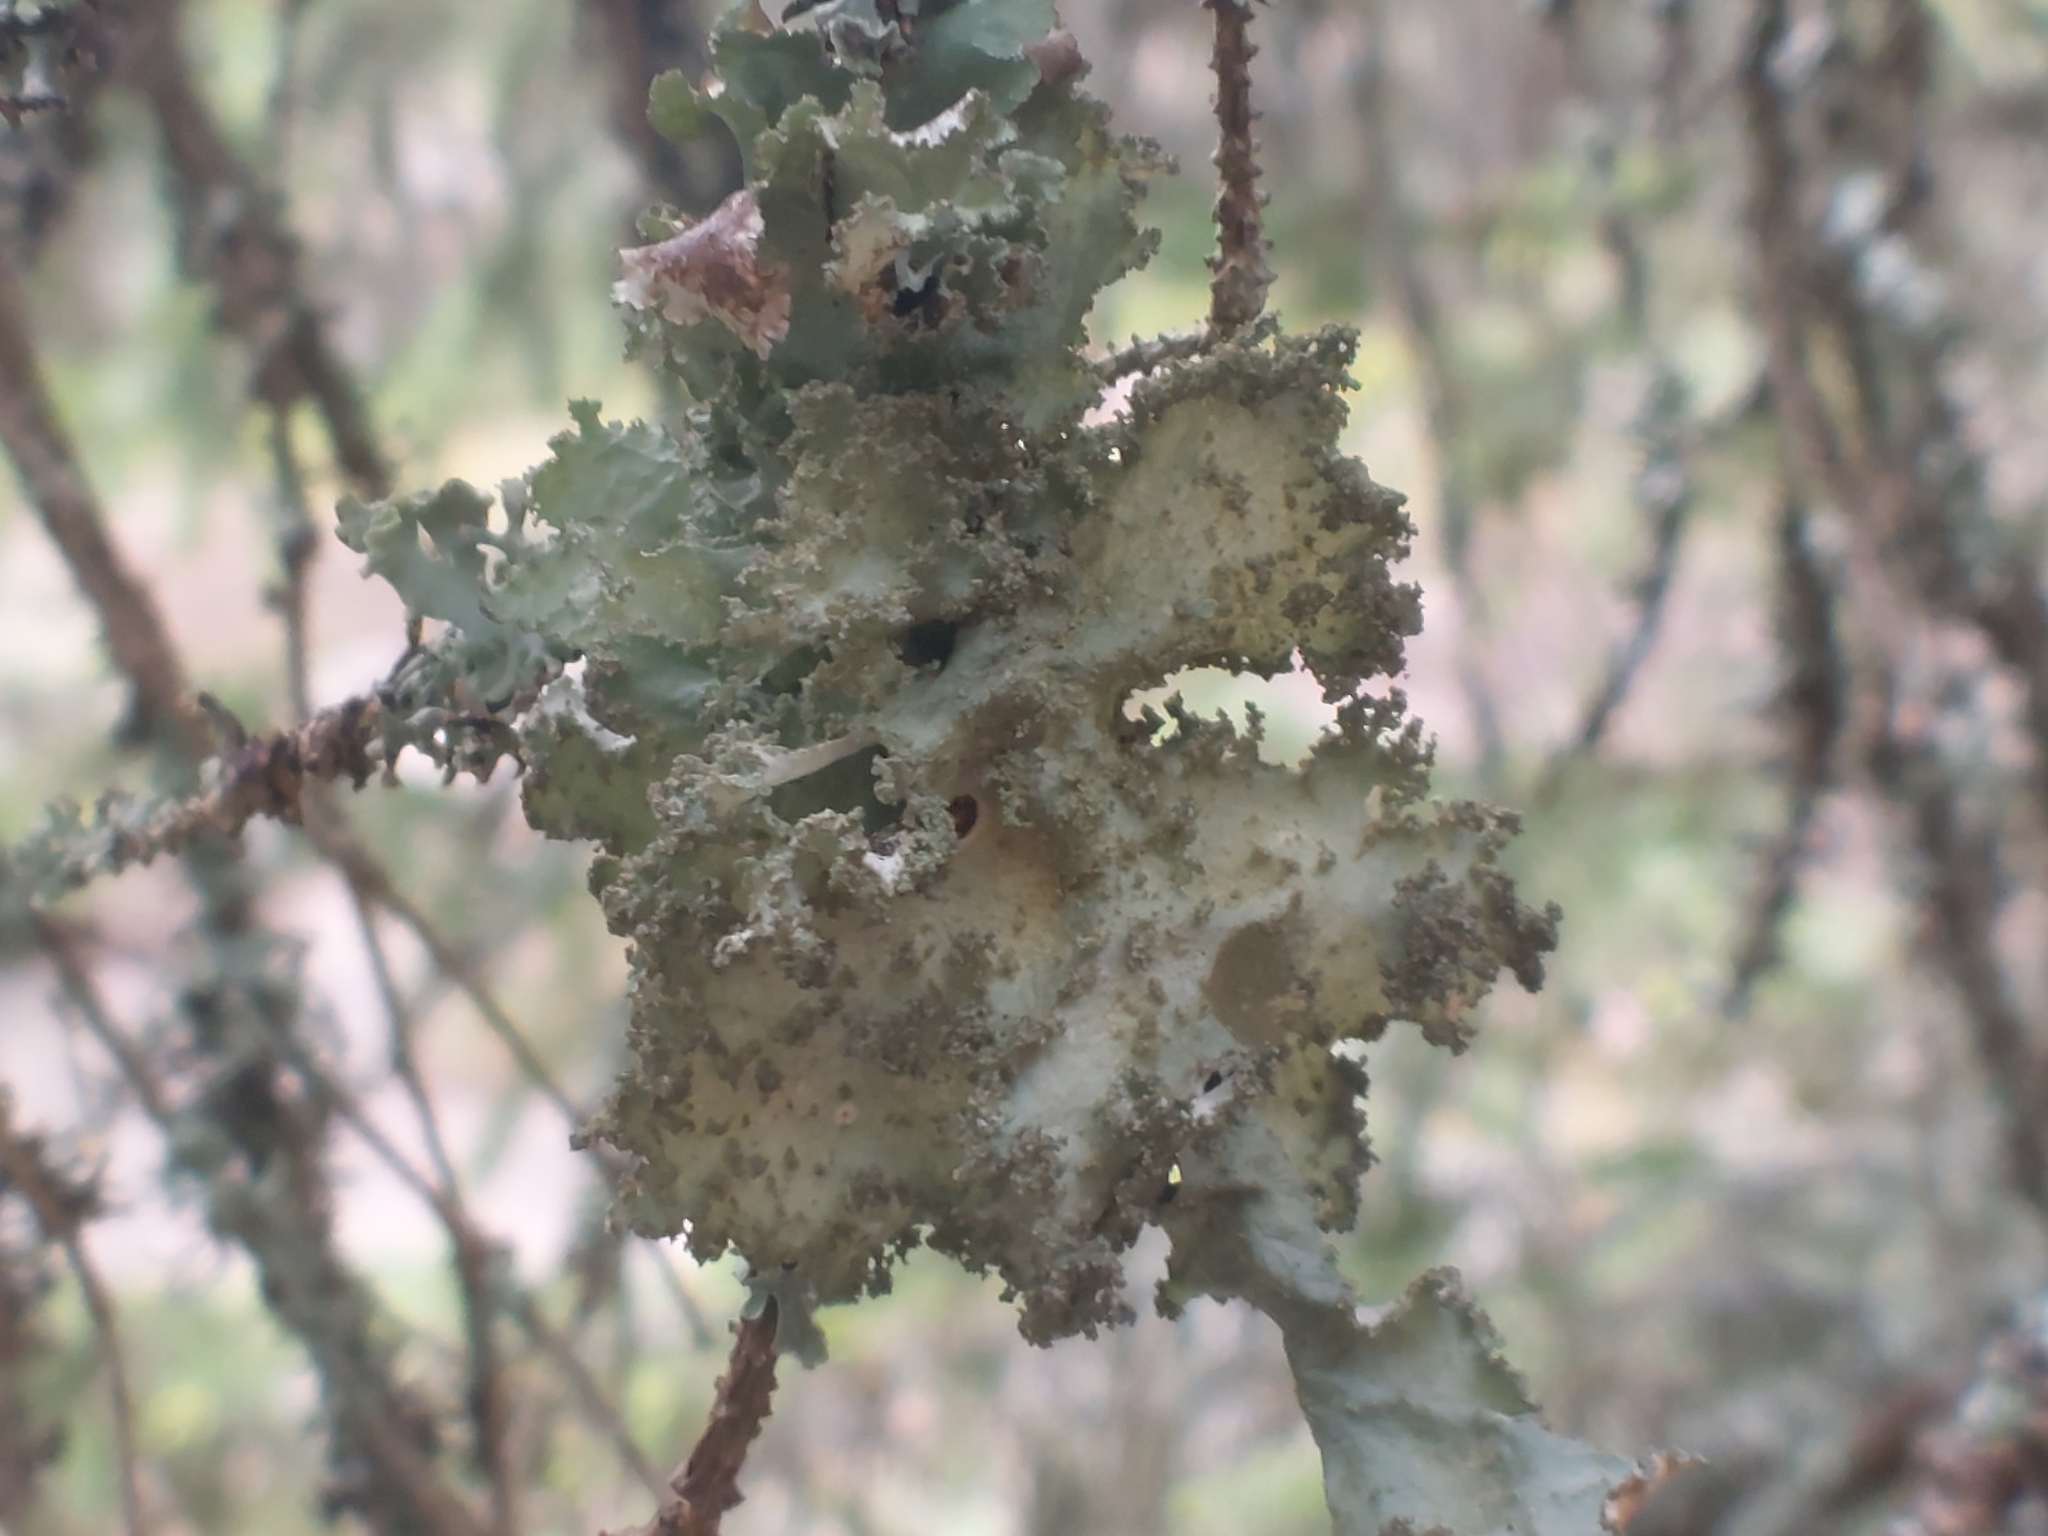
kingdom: Fungi
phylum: Ascomycota
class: Lecanoromycetes
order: Lecanorales
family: Parmeliaceae
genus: Platismatia
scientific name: Platismatia glauca
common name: Varied rag lichen
